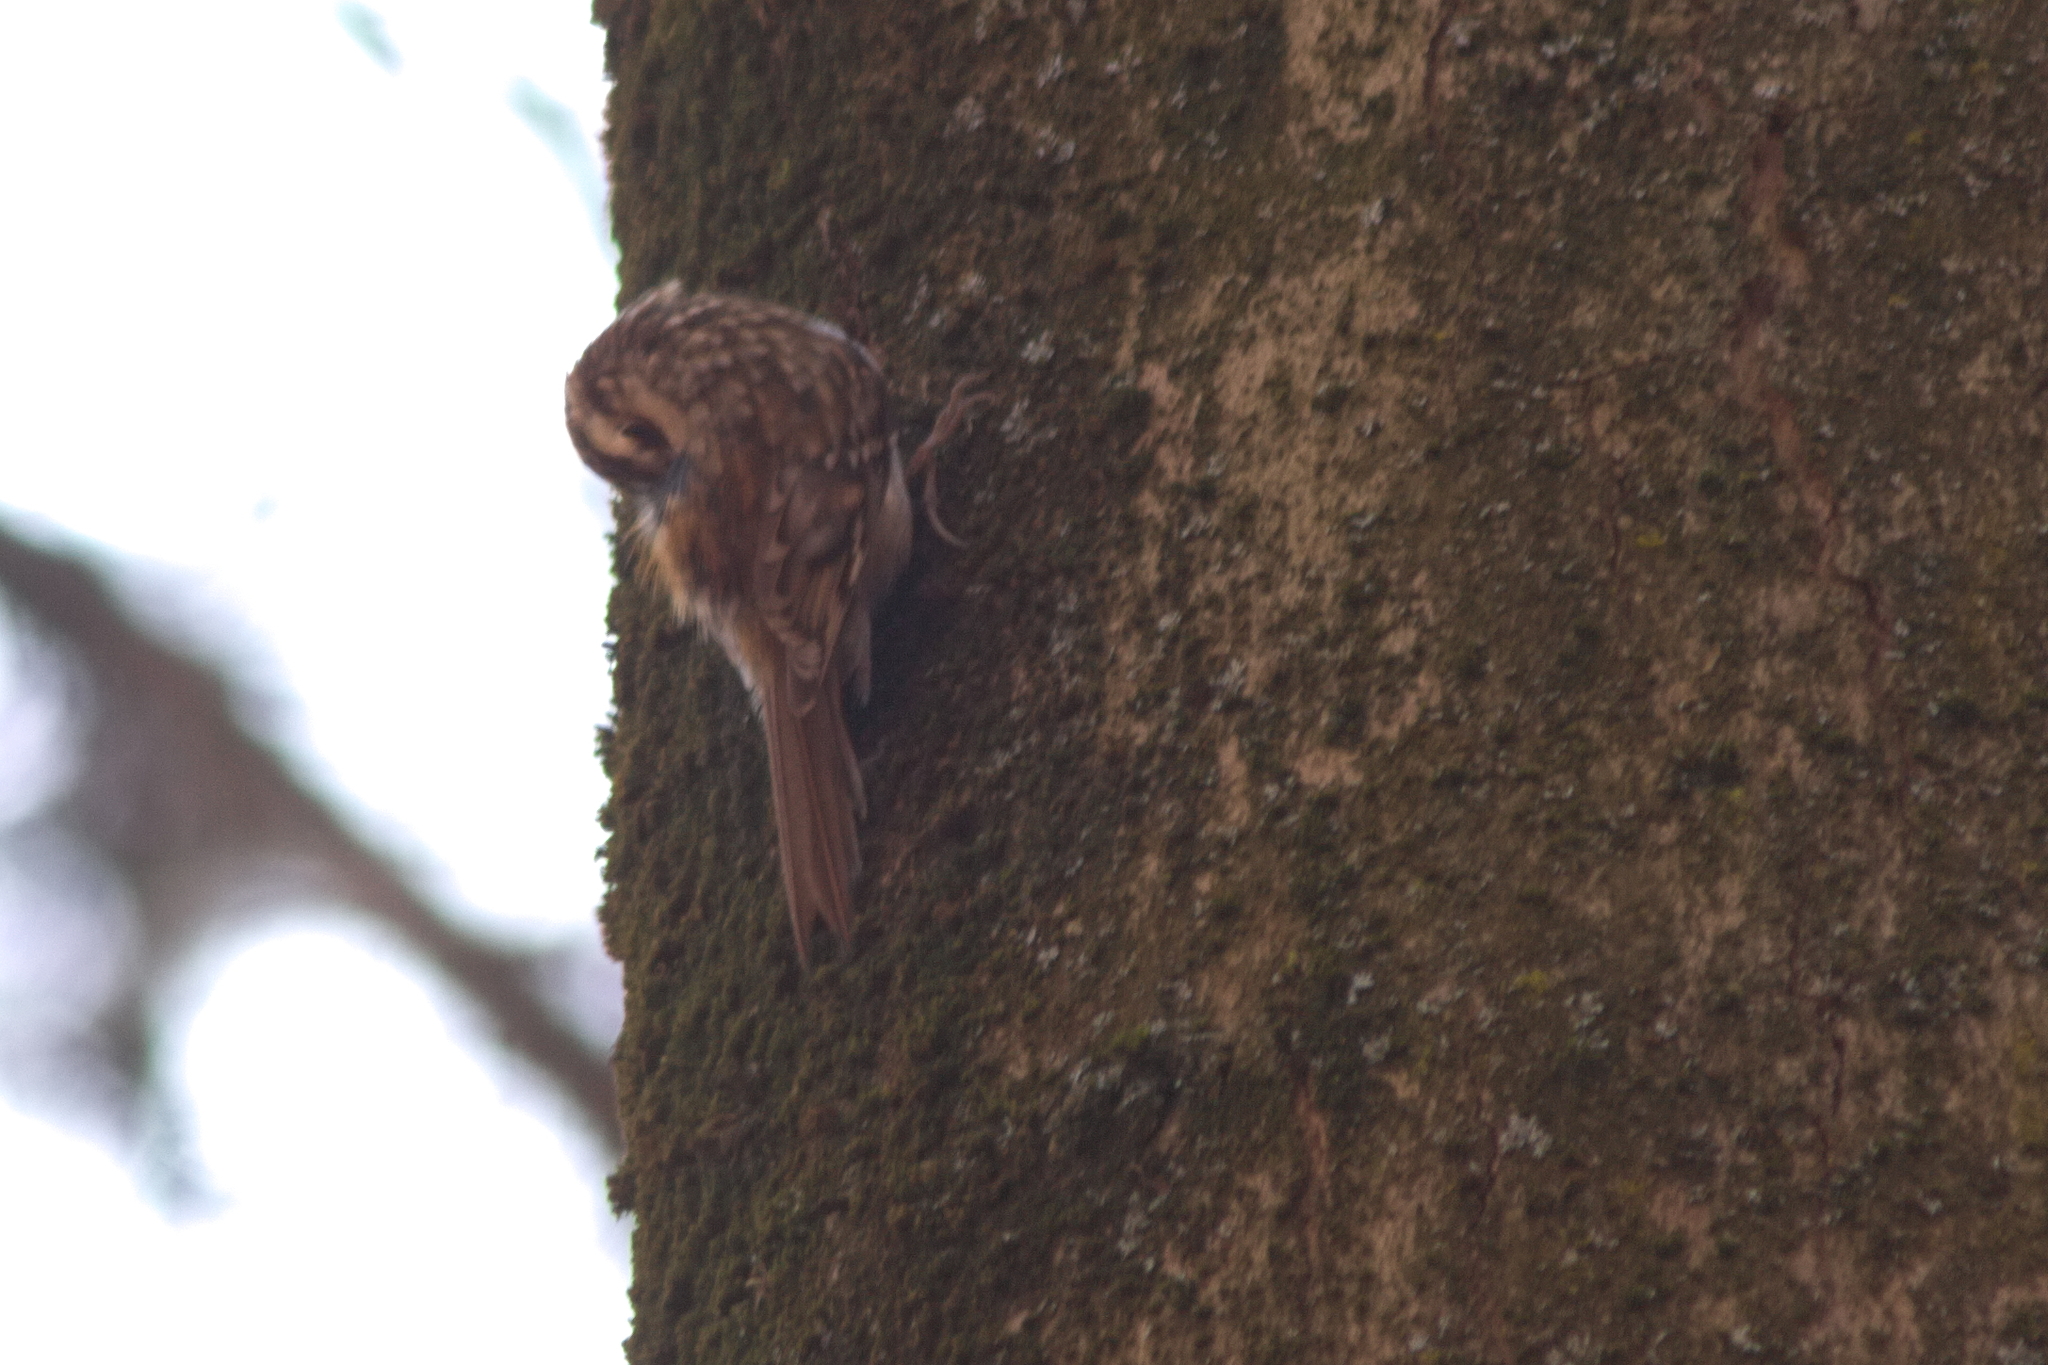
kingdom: Animalia
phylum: Chordata
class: Aves
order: Passeriformes
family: Certhiidae
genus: Certhia
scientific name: Certhia familiaris
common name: Eurasian treecreeper
